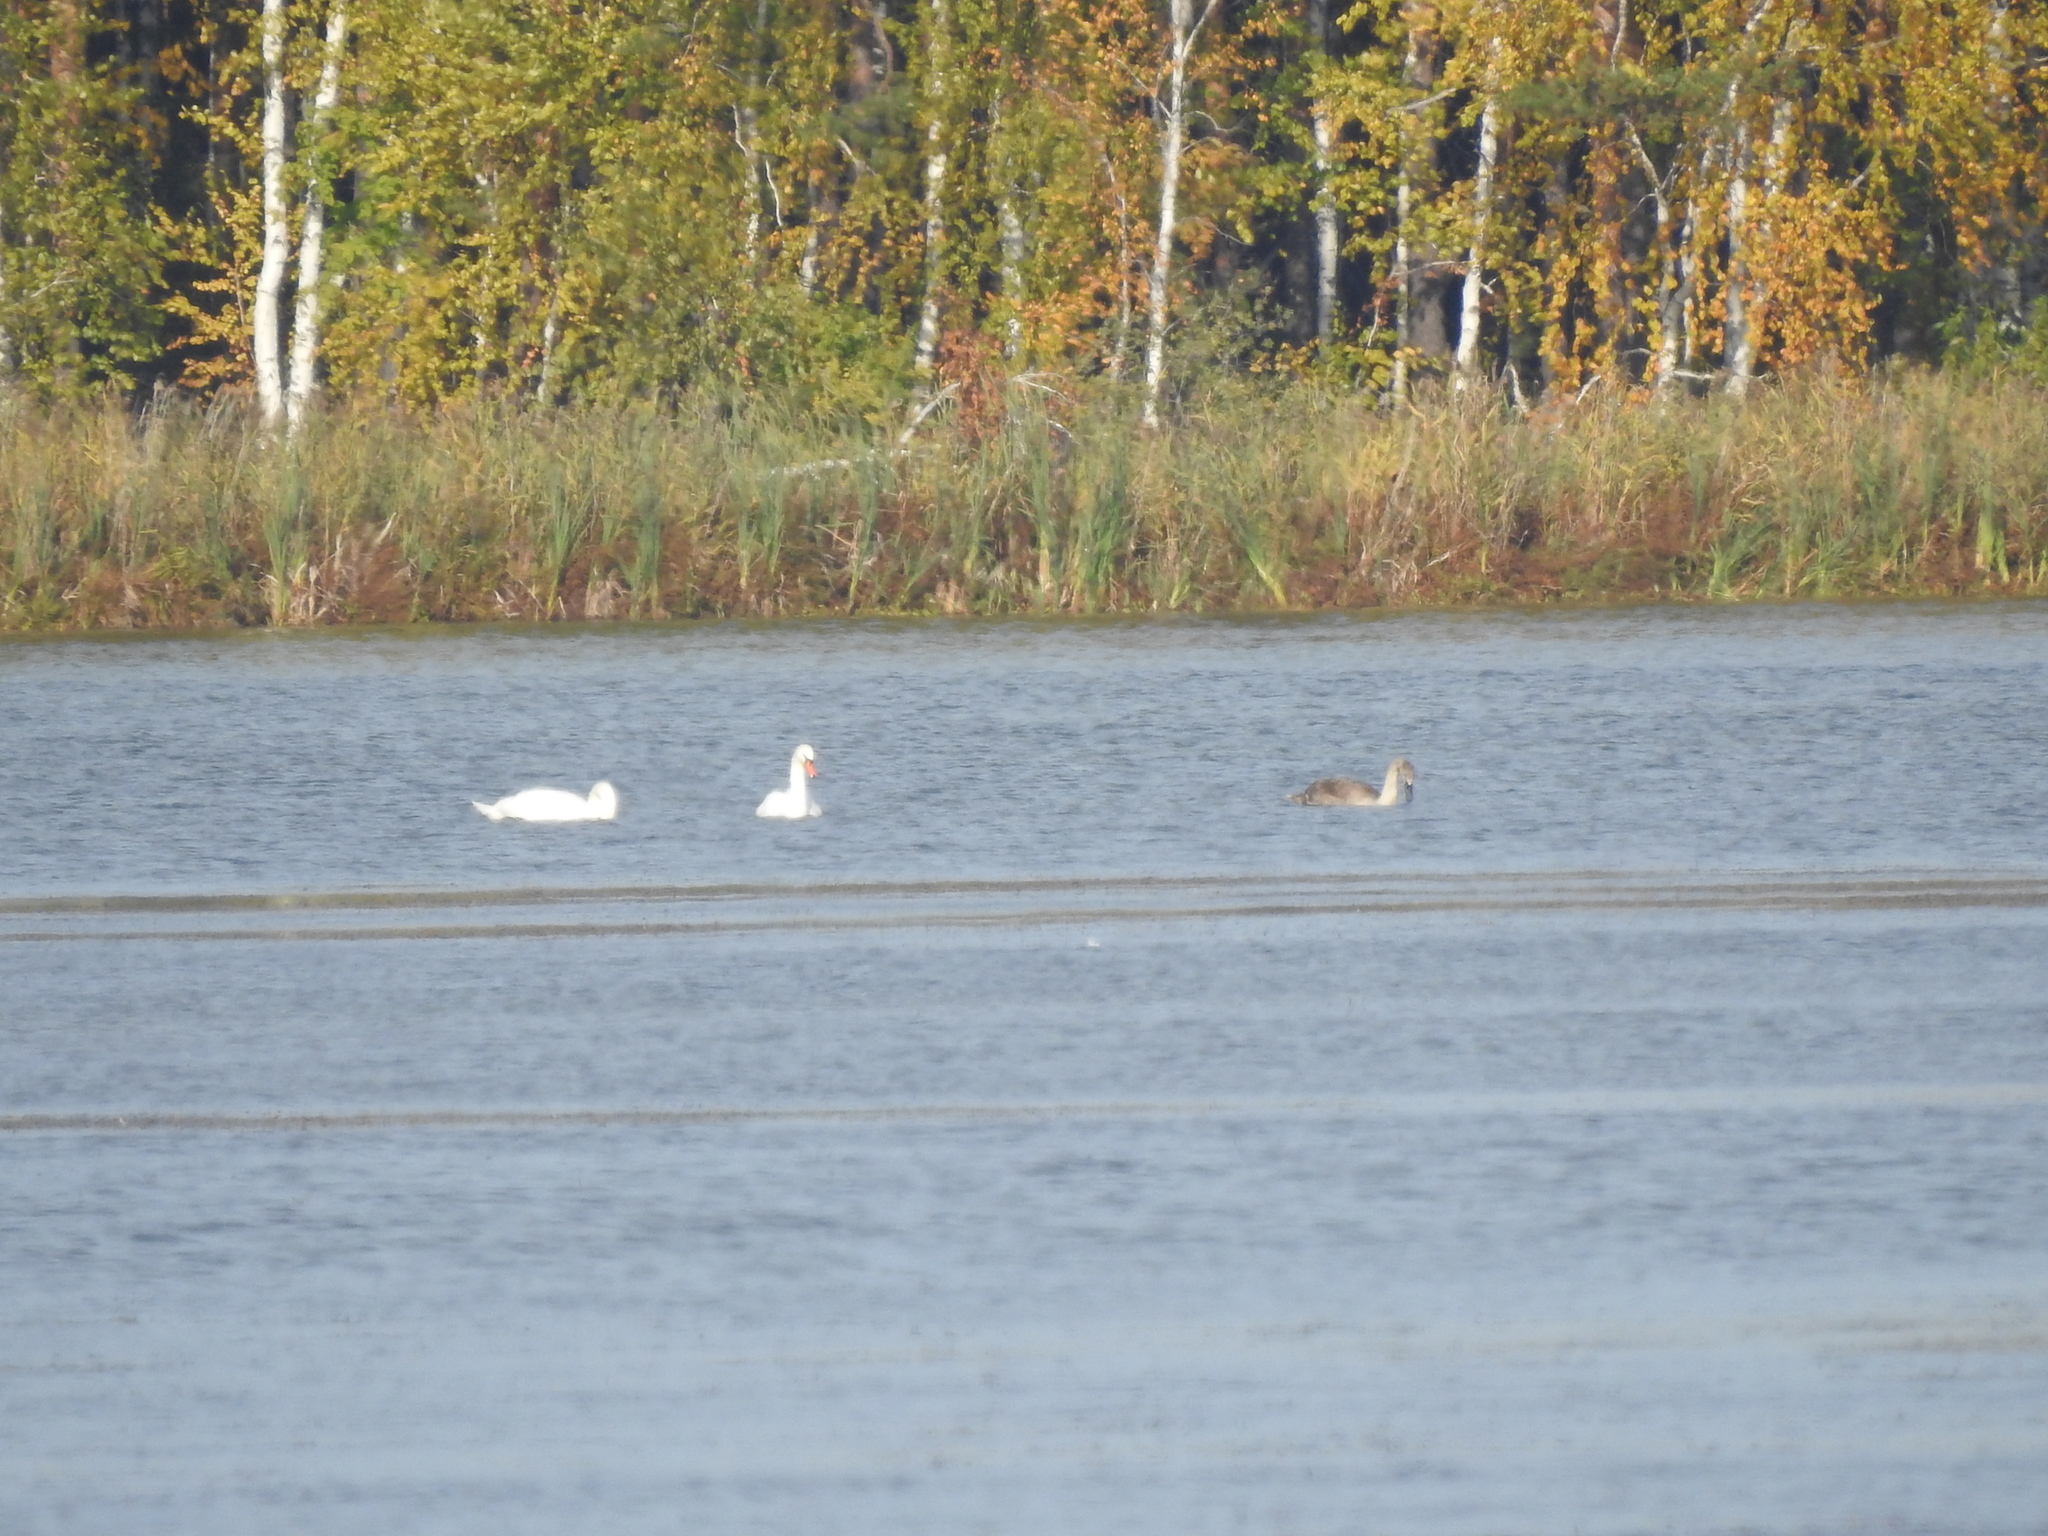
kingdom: Animalia
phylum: Chordata
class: Aves
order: Anseriformes
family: Anatidae
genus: Cygnus
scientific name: Cygnus olor
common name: Mute swan
